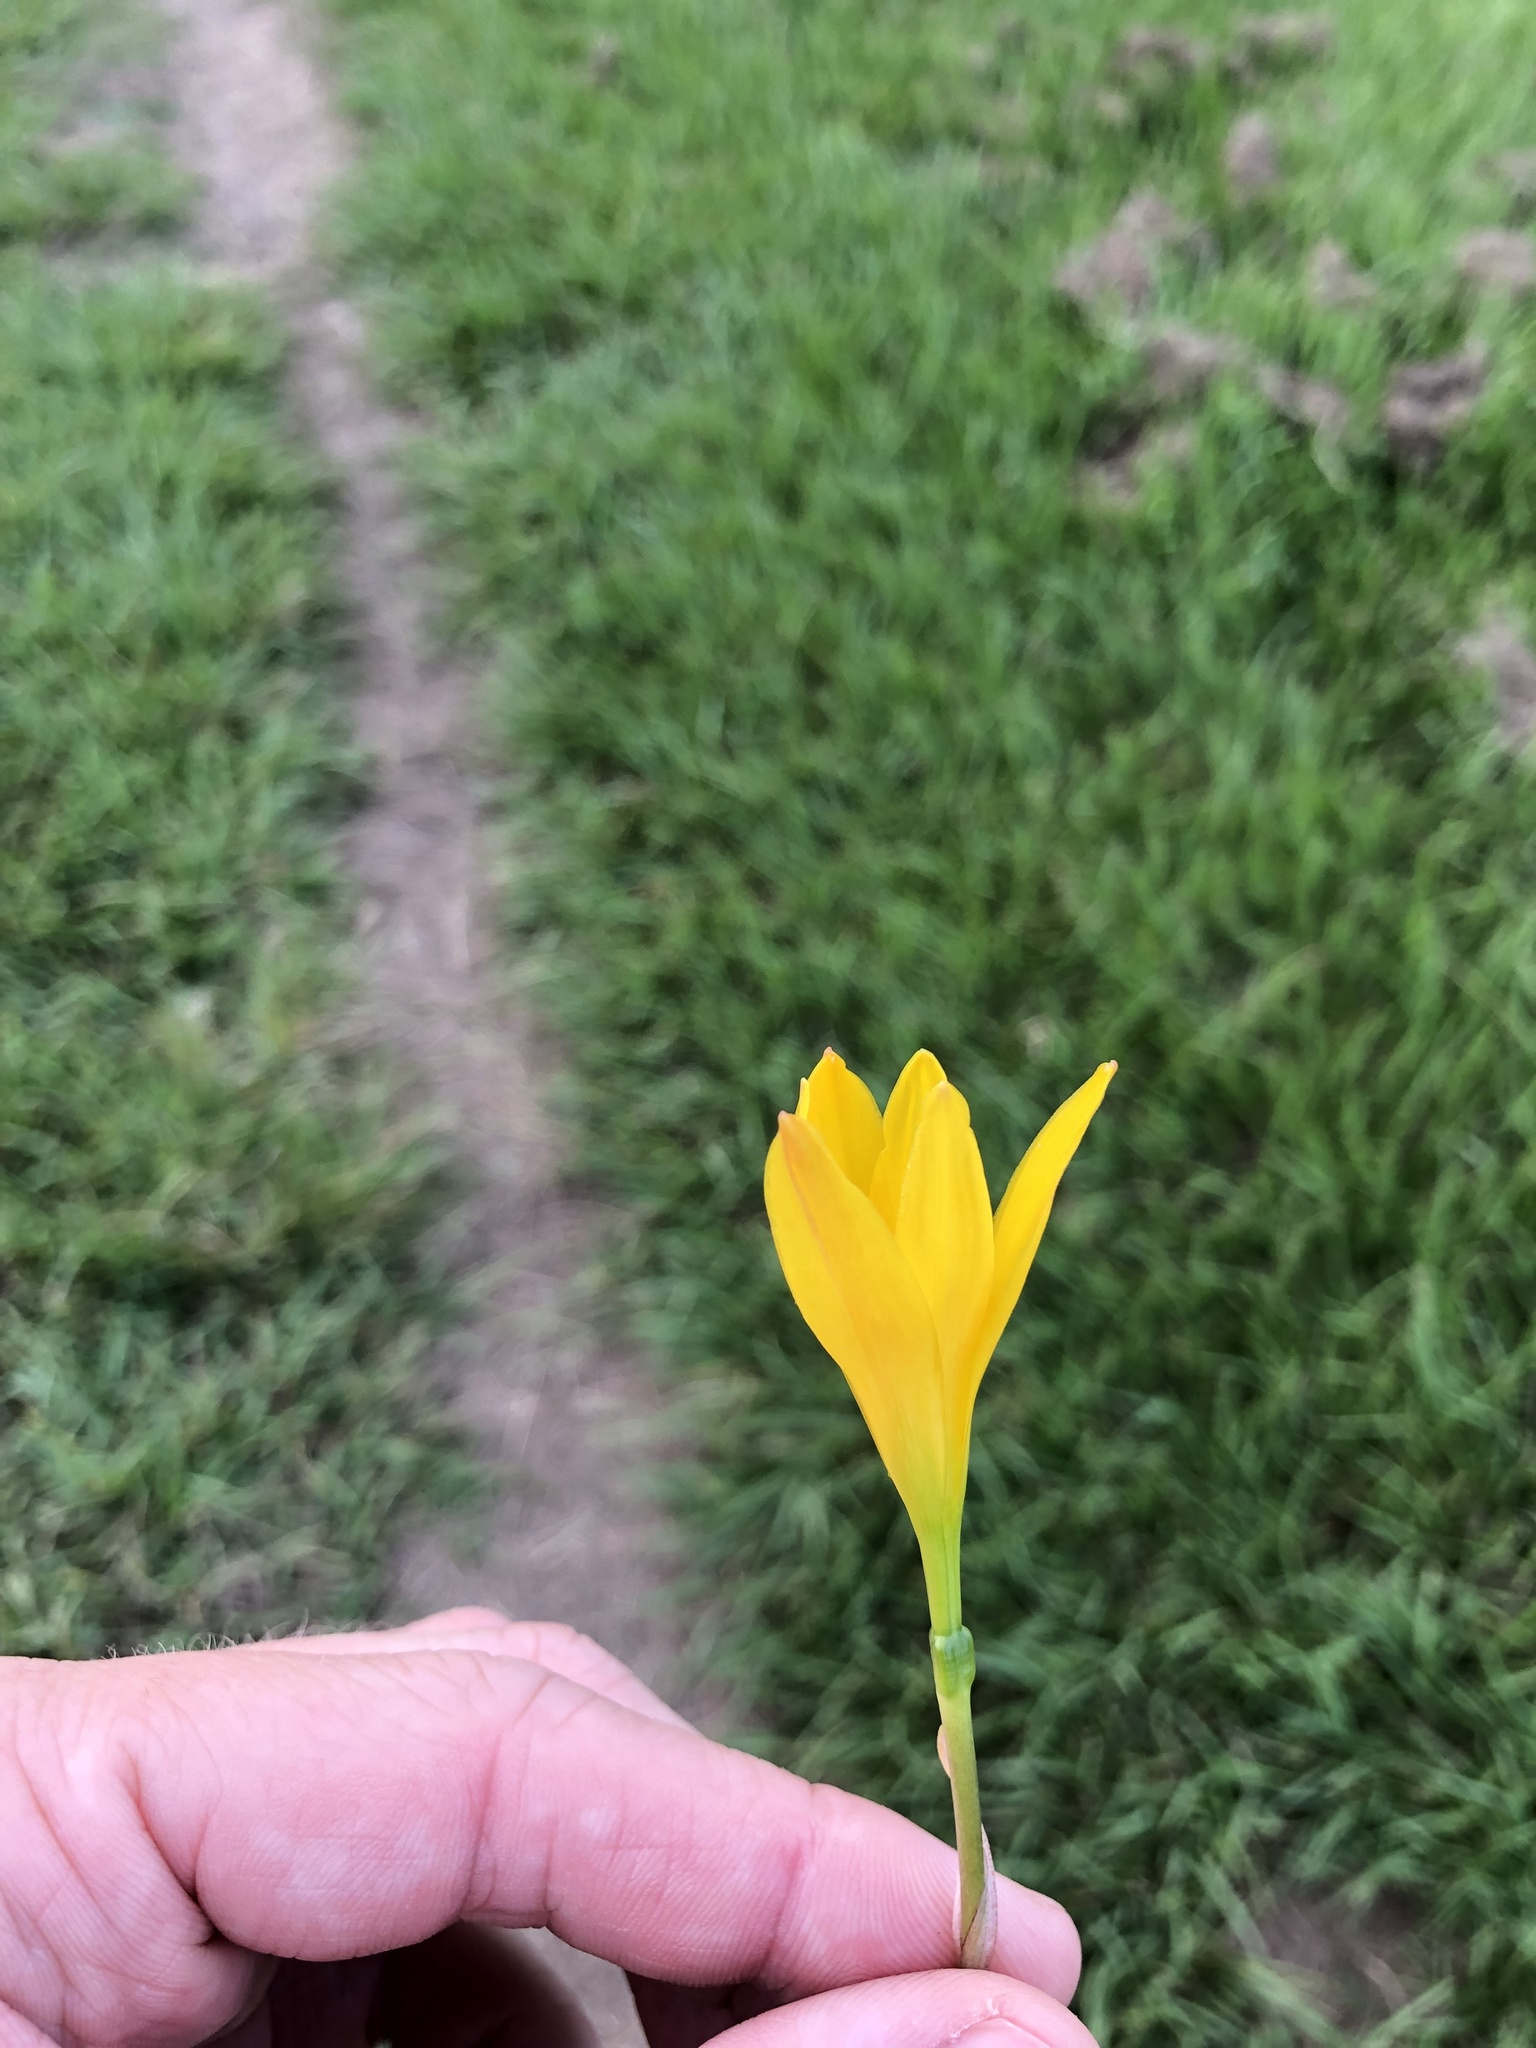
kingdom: Plantae
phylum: Tracheophyta
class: Liliopsida
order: Asparagales
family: Amaryllidaceae
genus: Zephyranthes
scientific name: Zephyranthes citrina
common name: Citron zephyrlily
